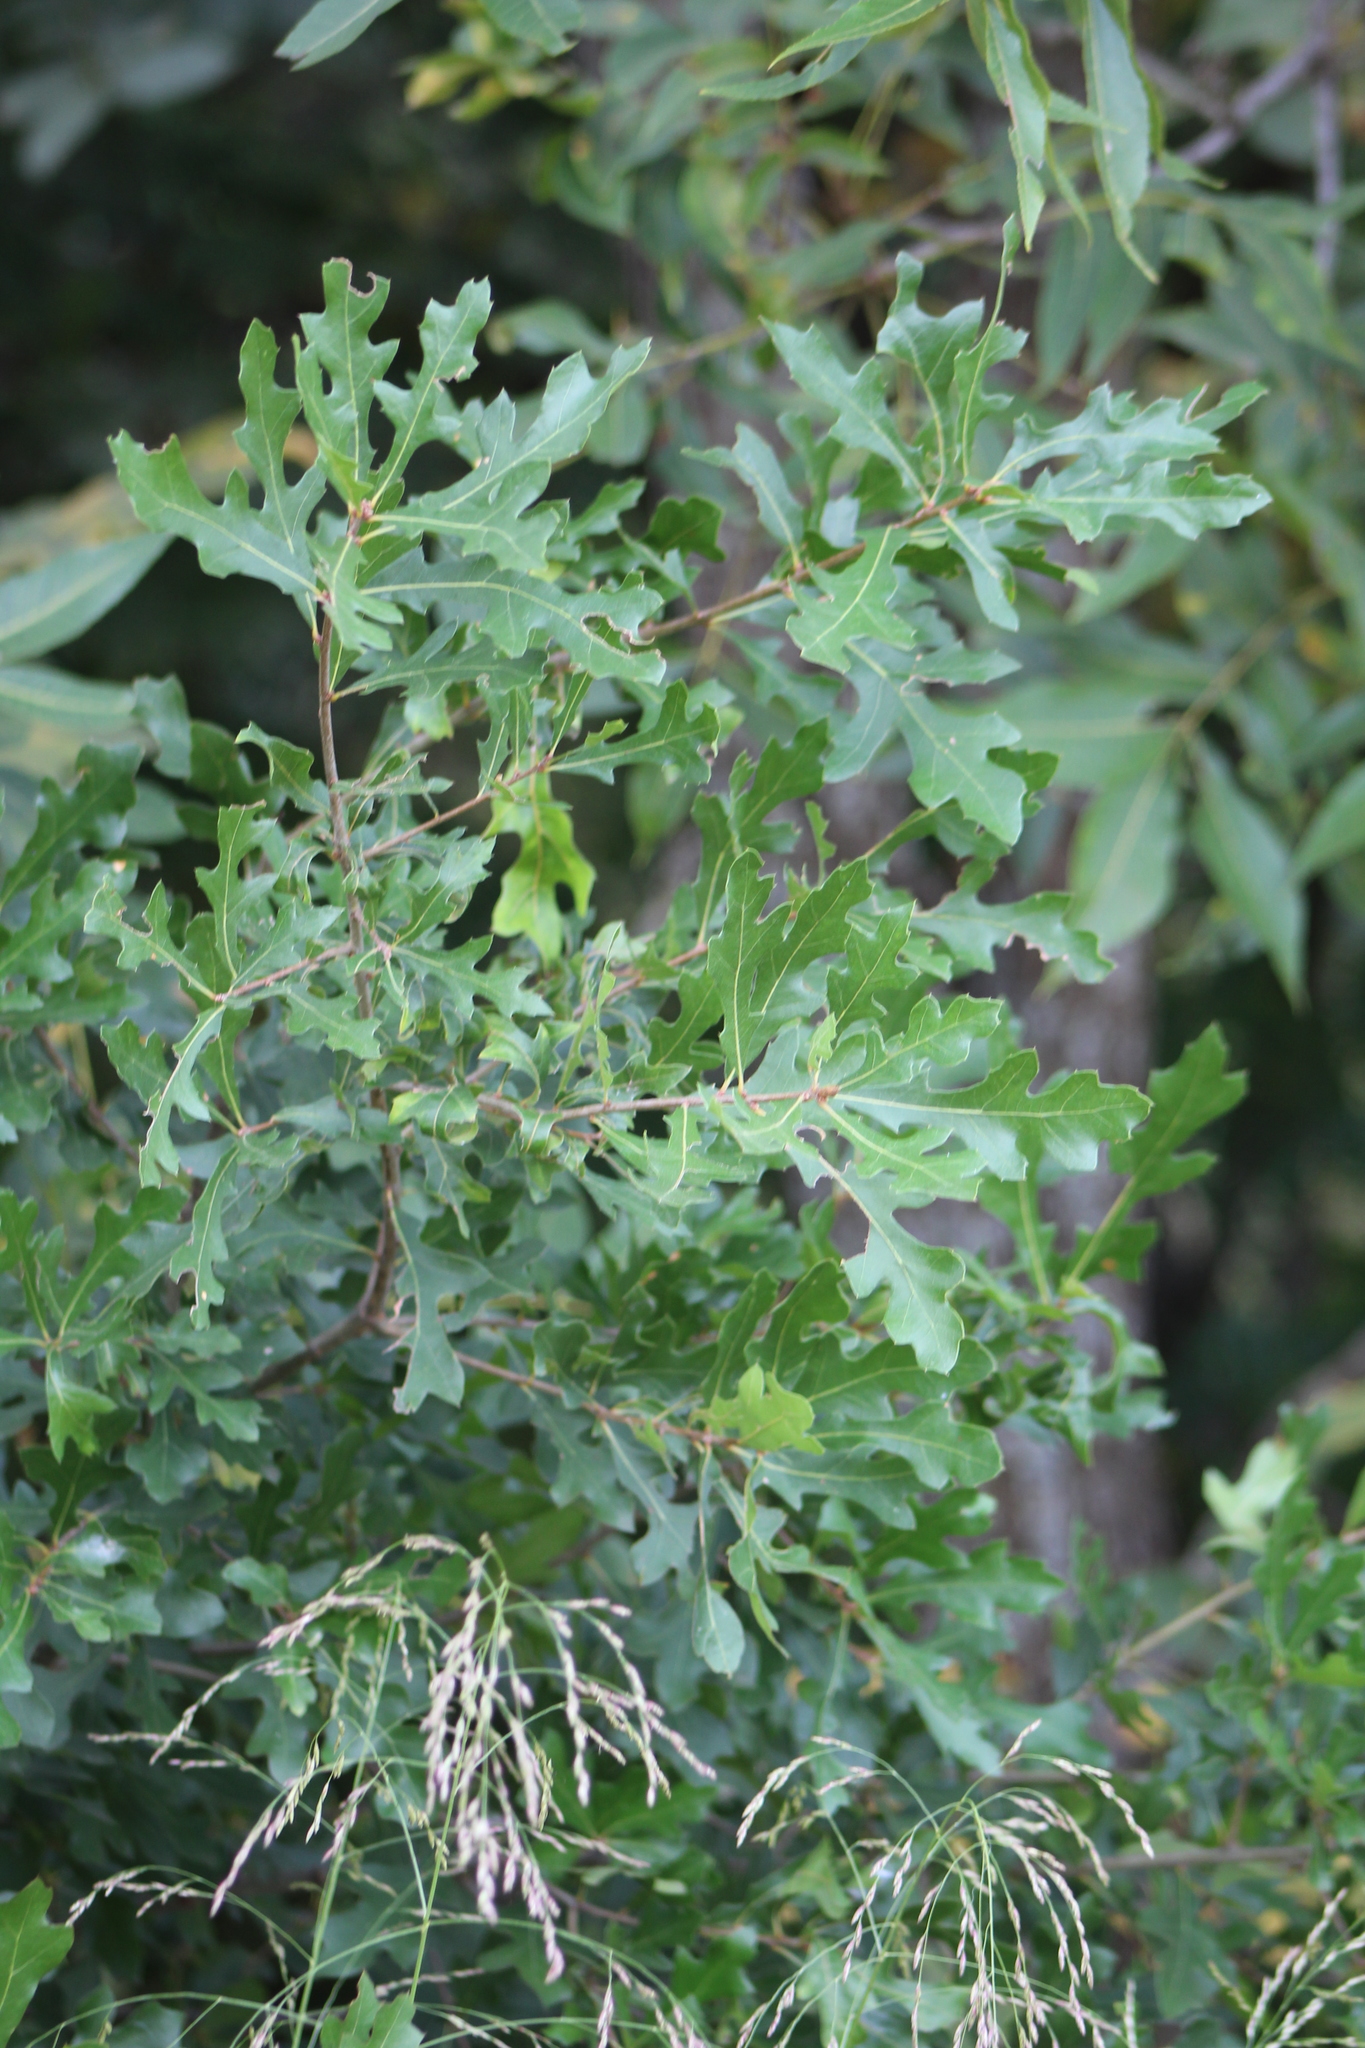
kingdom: Plantae
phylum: Tracheophyta
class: Magnoliopsida
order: Fagales
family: Fagaceae
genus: Quercus
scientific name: Quercus
